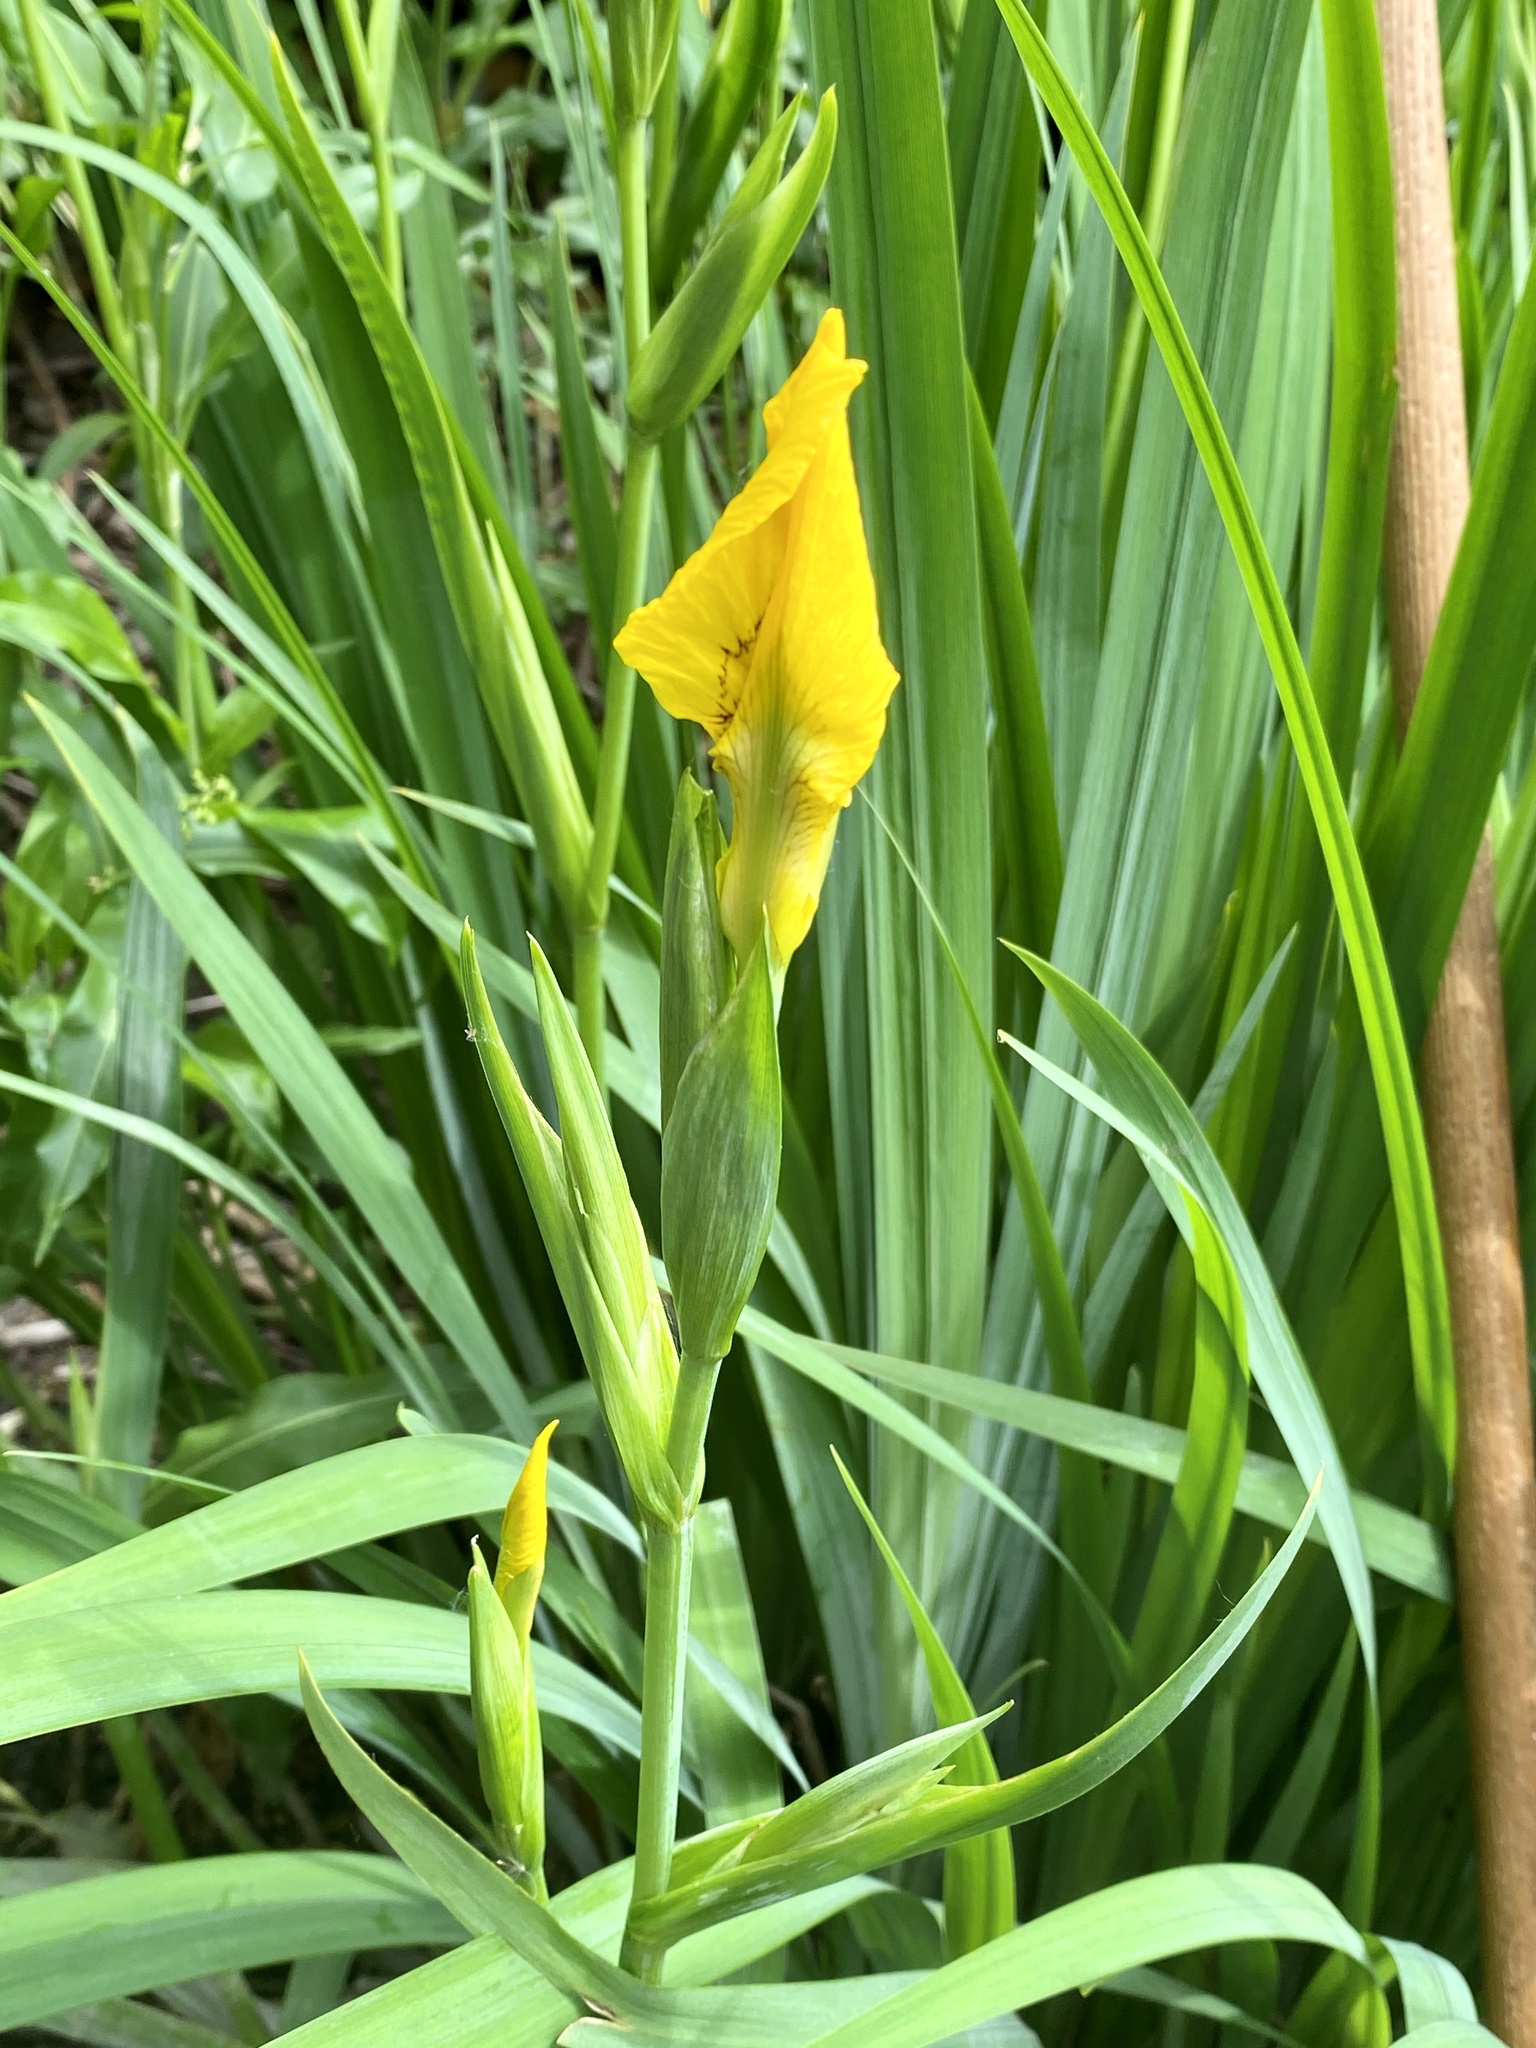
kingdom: Plantae
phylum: Tracheophyta
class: Liliopsida
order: Asparagales
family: Iridaceae
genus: Iris
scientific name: Iris pseudacorus
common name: Yellow flag
